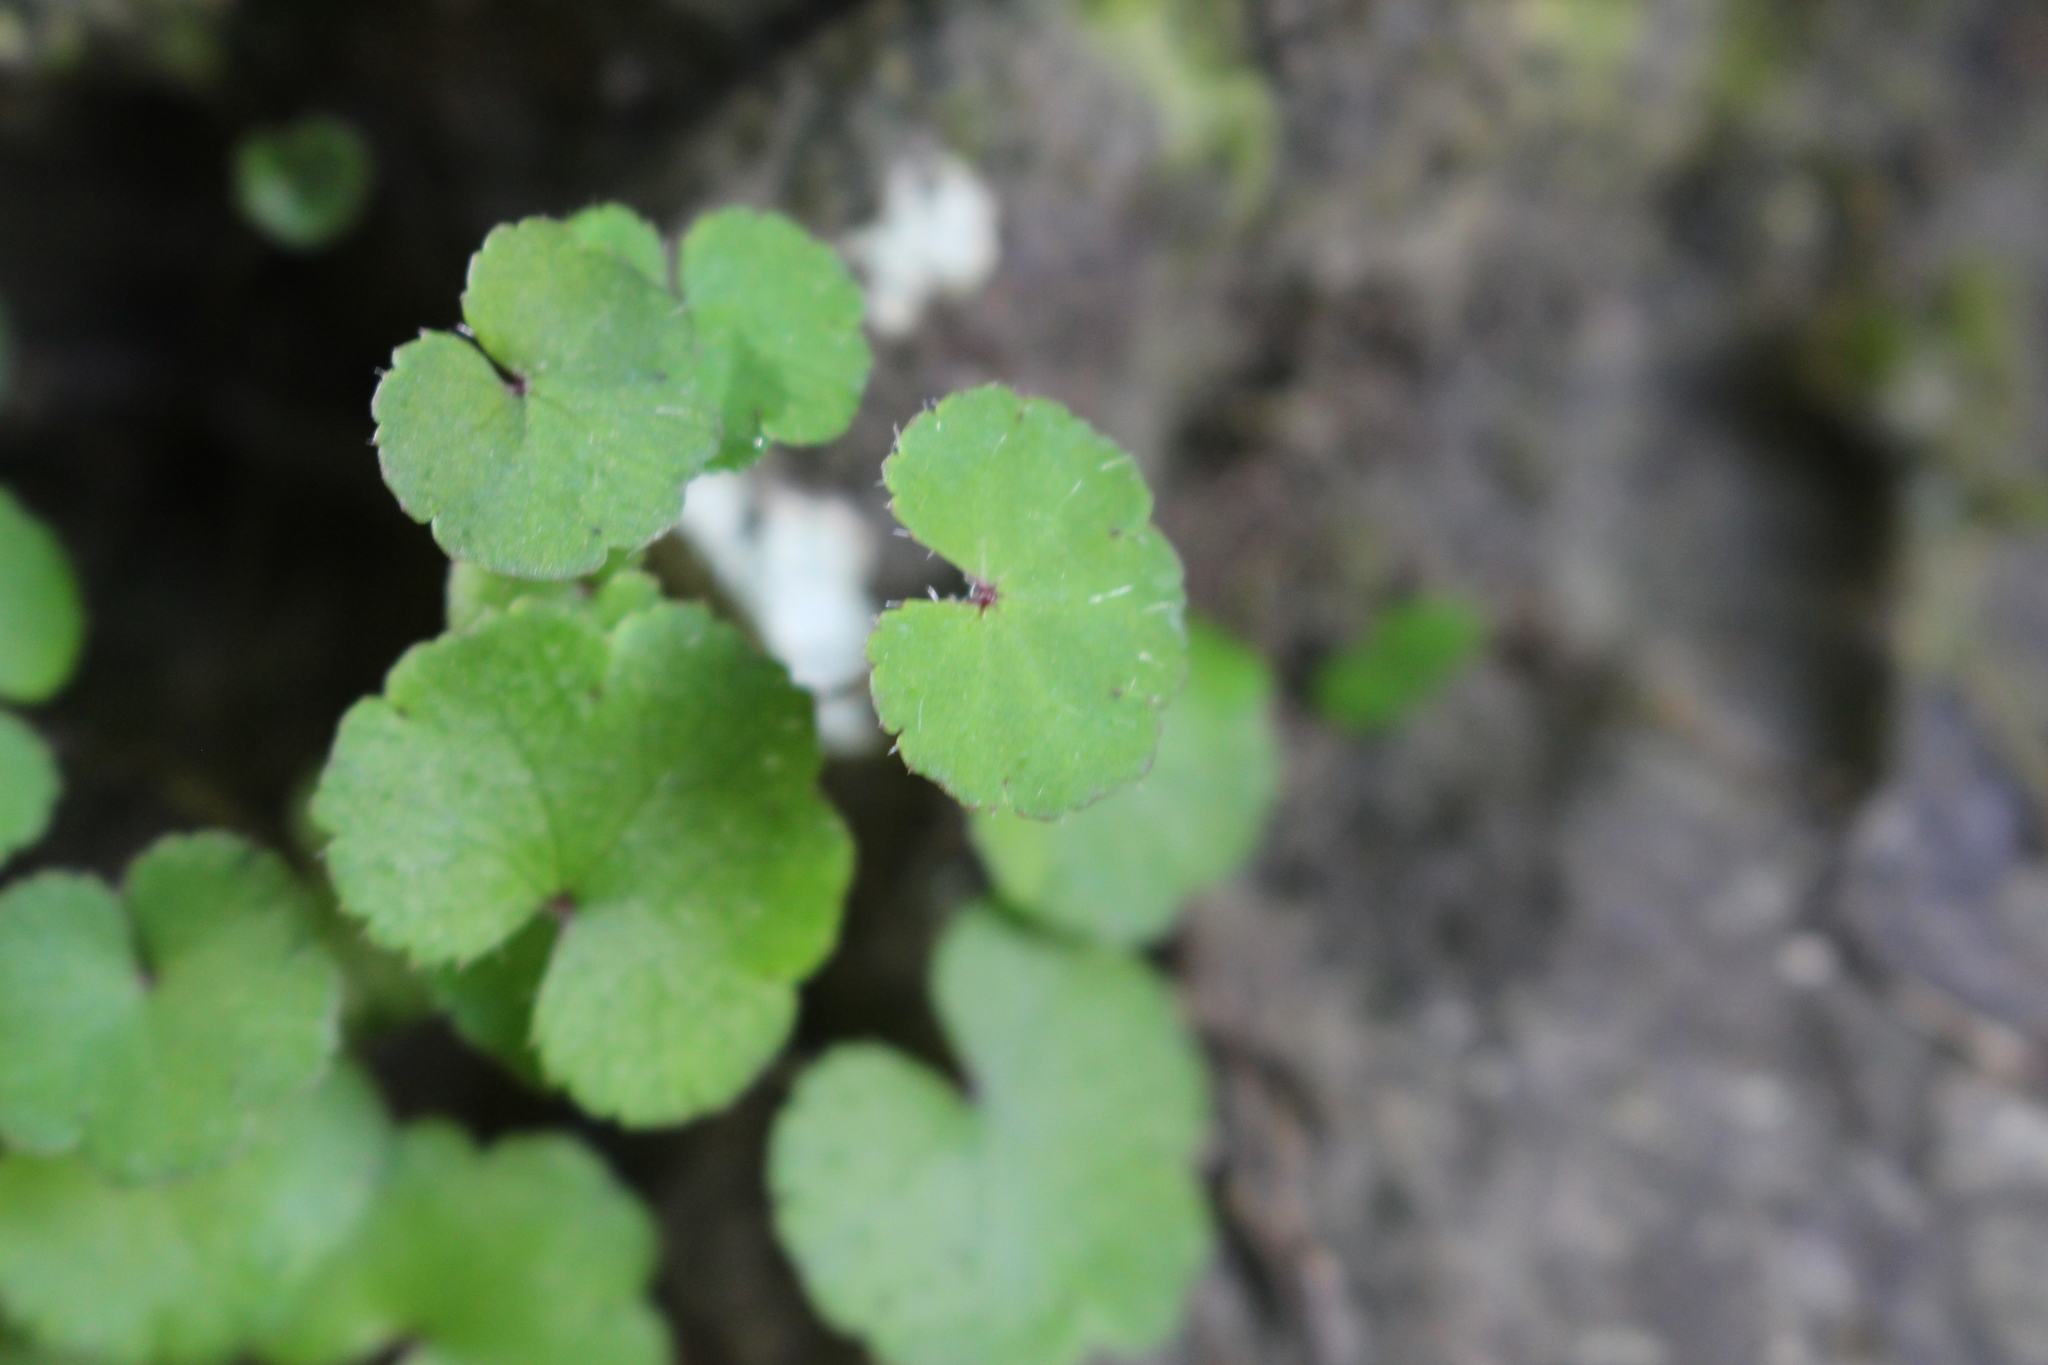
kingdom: Plantae
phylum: Tracheophyta
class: Magnoliopsida
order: Apiales
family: Araliaceae
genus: Hydrocotyle
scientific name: Hydrocotyle heteromeria
